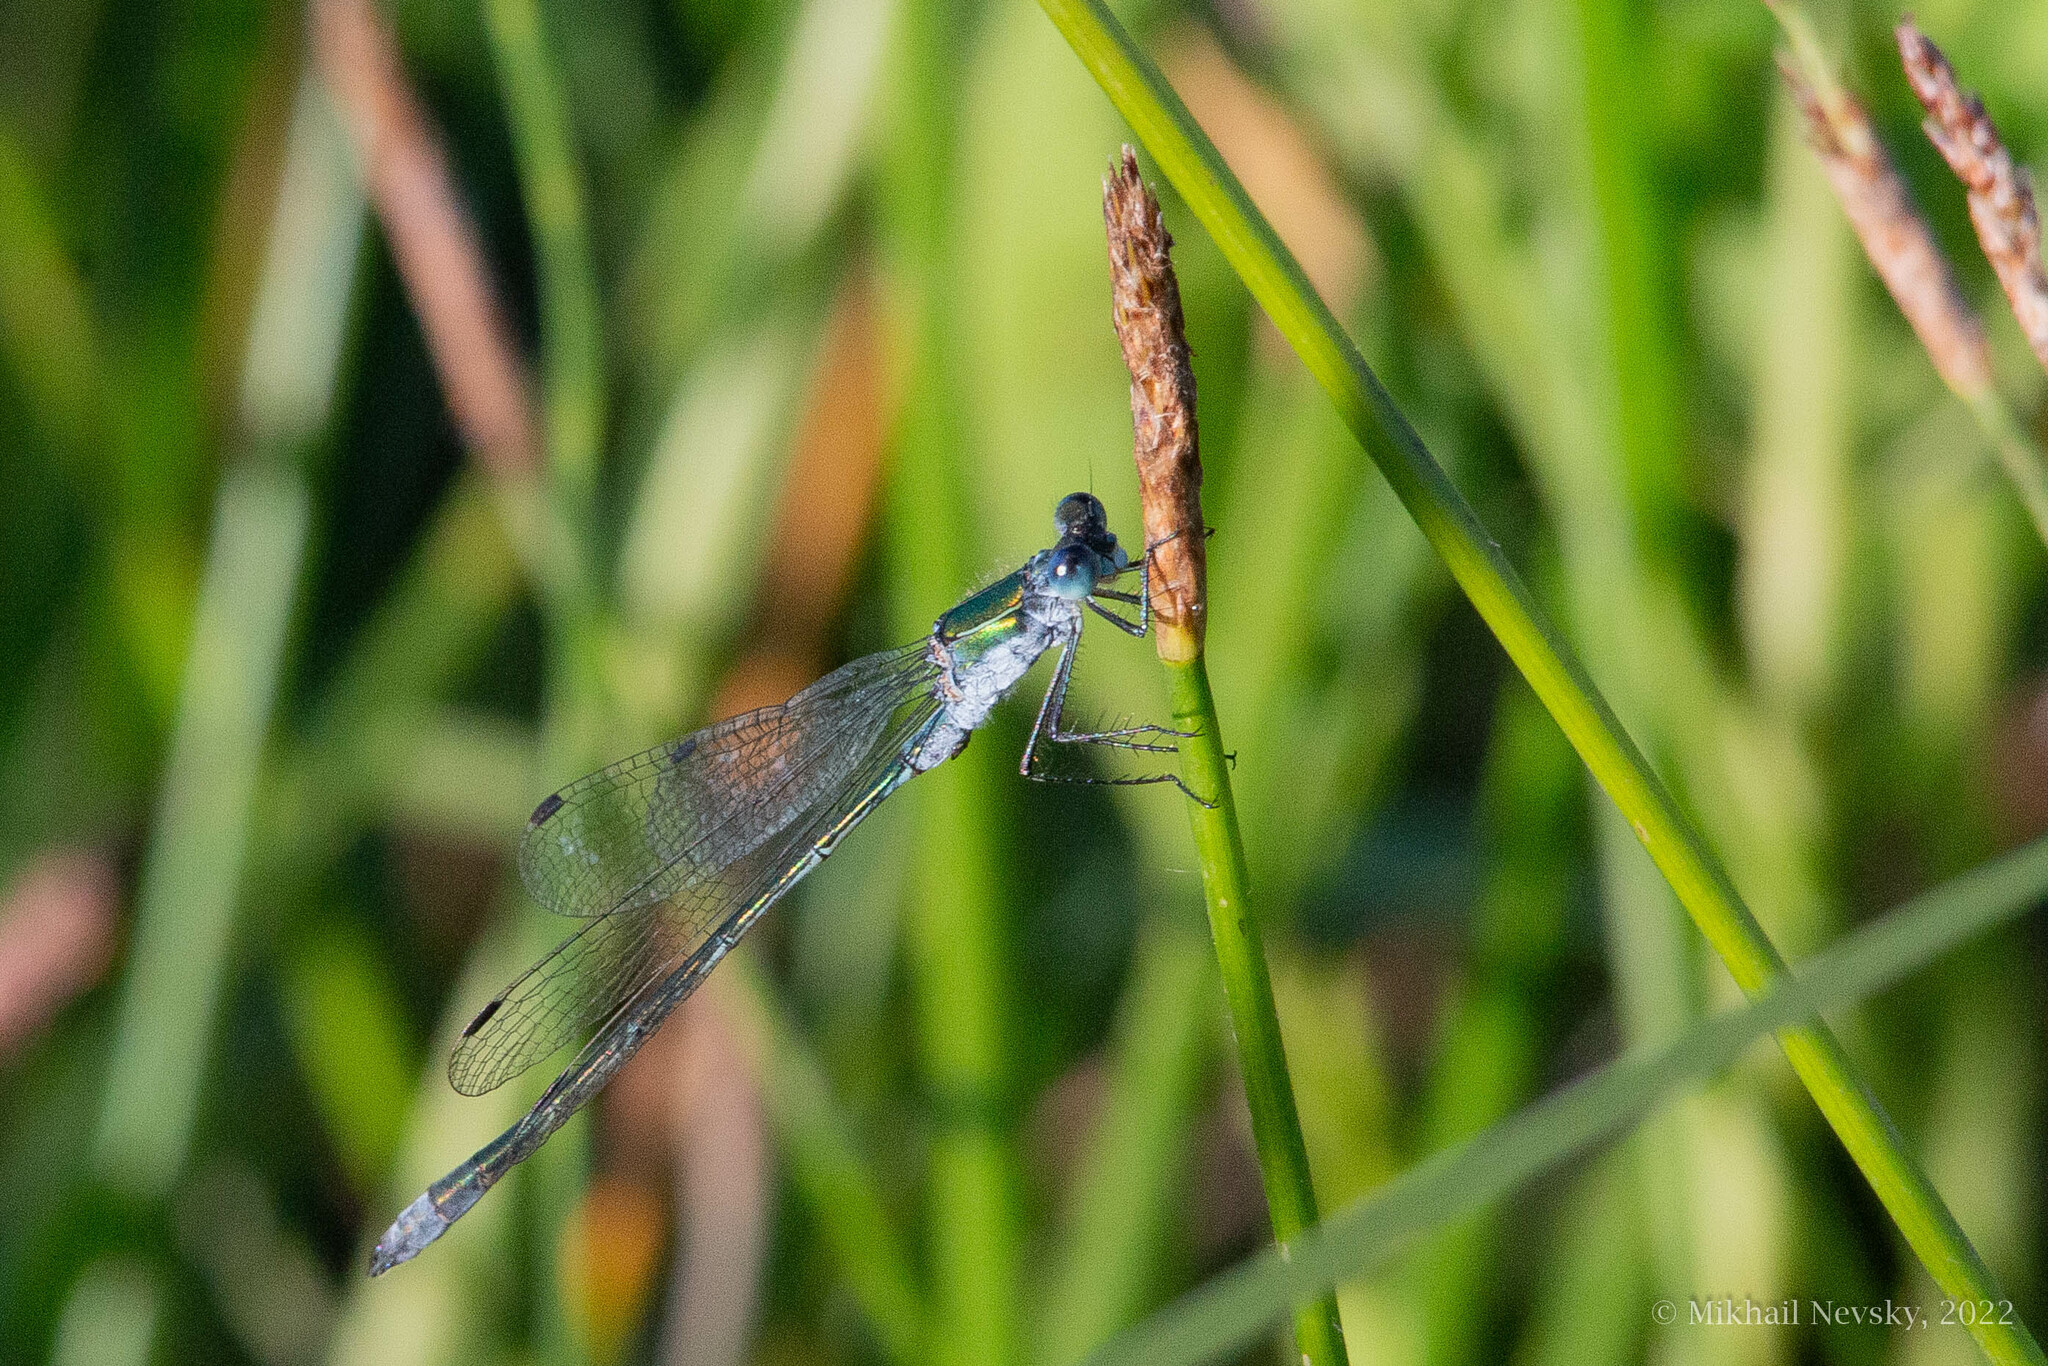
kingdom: Animalia
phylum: Arthropoda
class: Insecta
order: Odonata
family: Lestidae
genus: Lestes
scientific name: Lestes sponsa
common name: Common spreadwing
